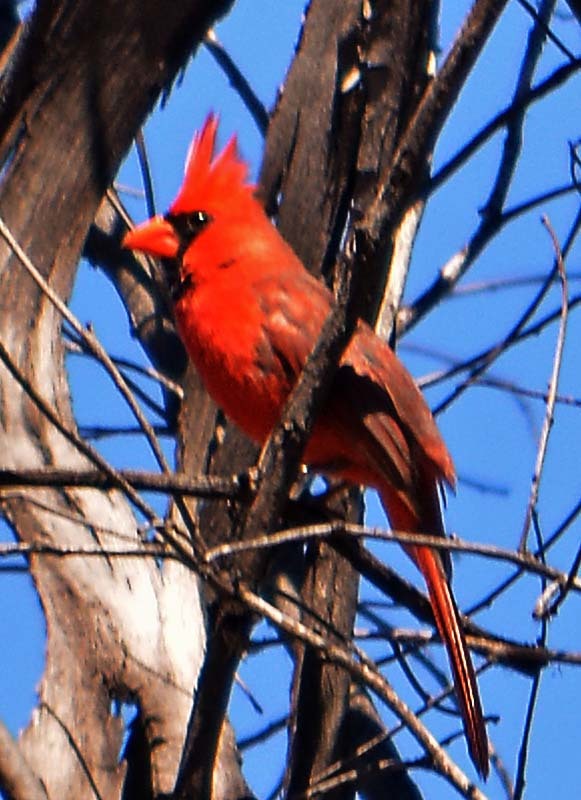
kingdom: Animalia
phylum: Chordata
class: Aves
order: Passeriformes
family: Cardinalidae
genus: Cardinalis
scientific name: Cardinalis cardinalis
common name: Northern cardinal
